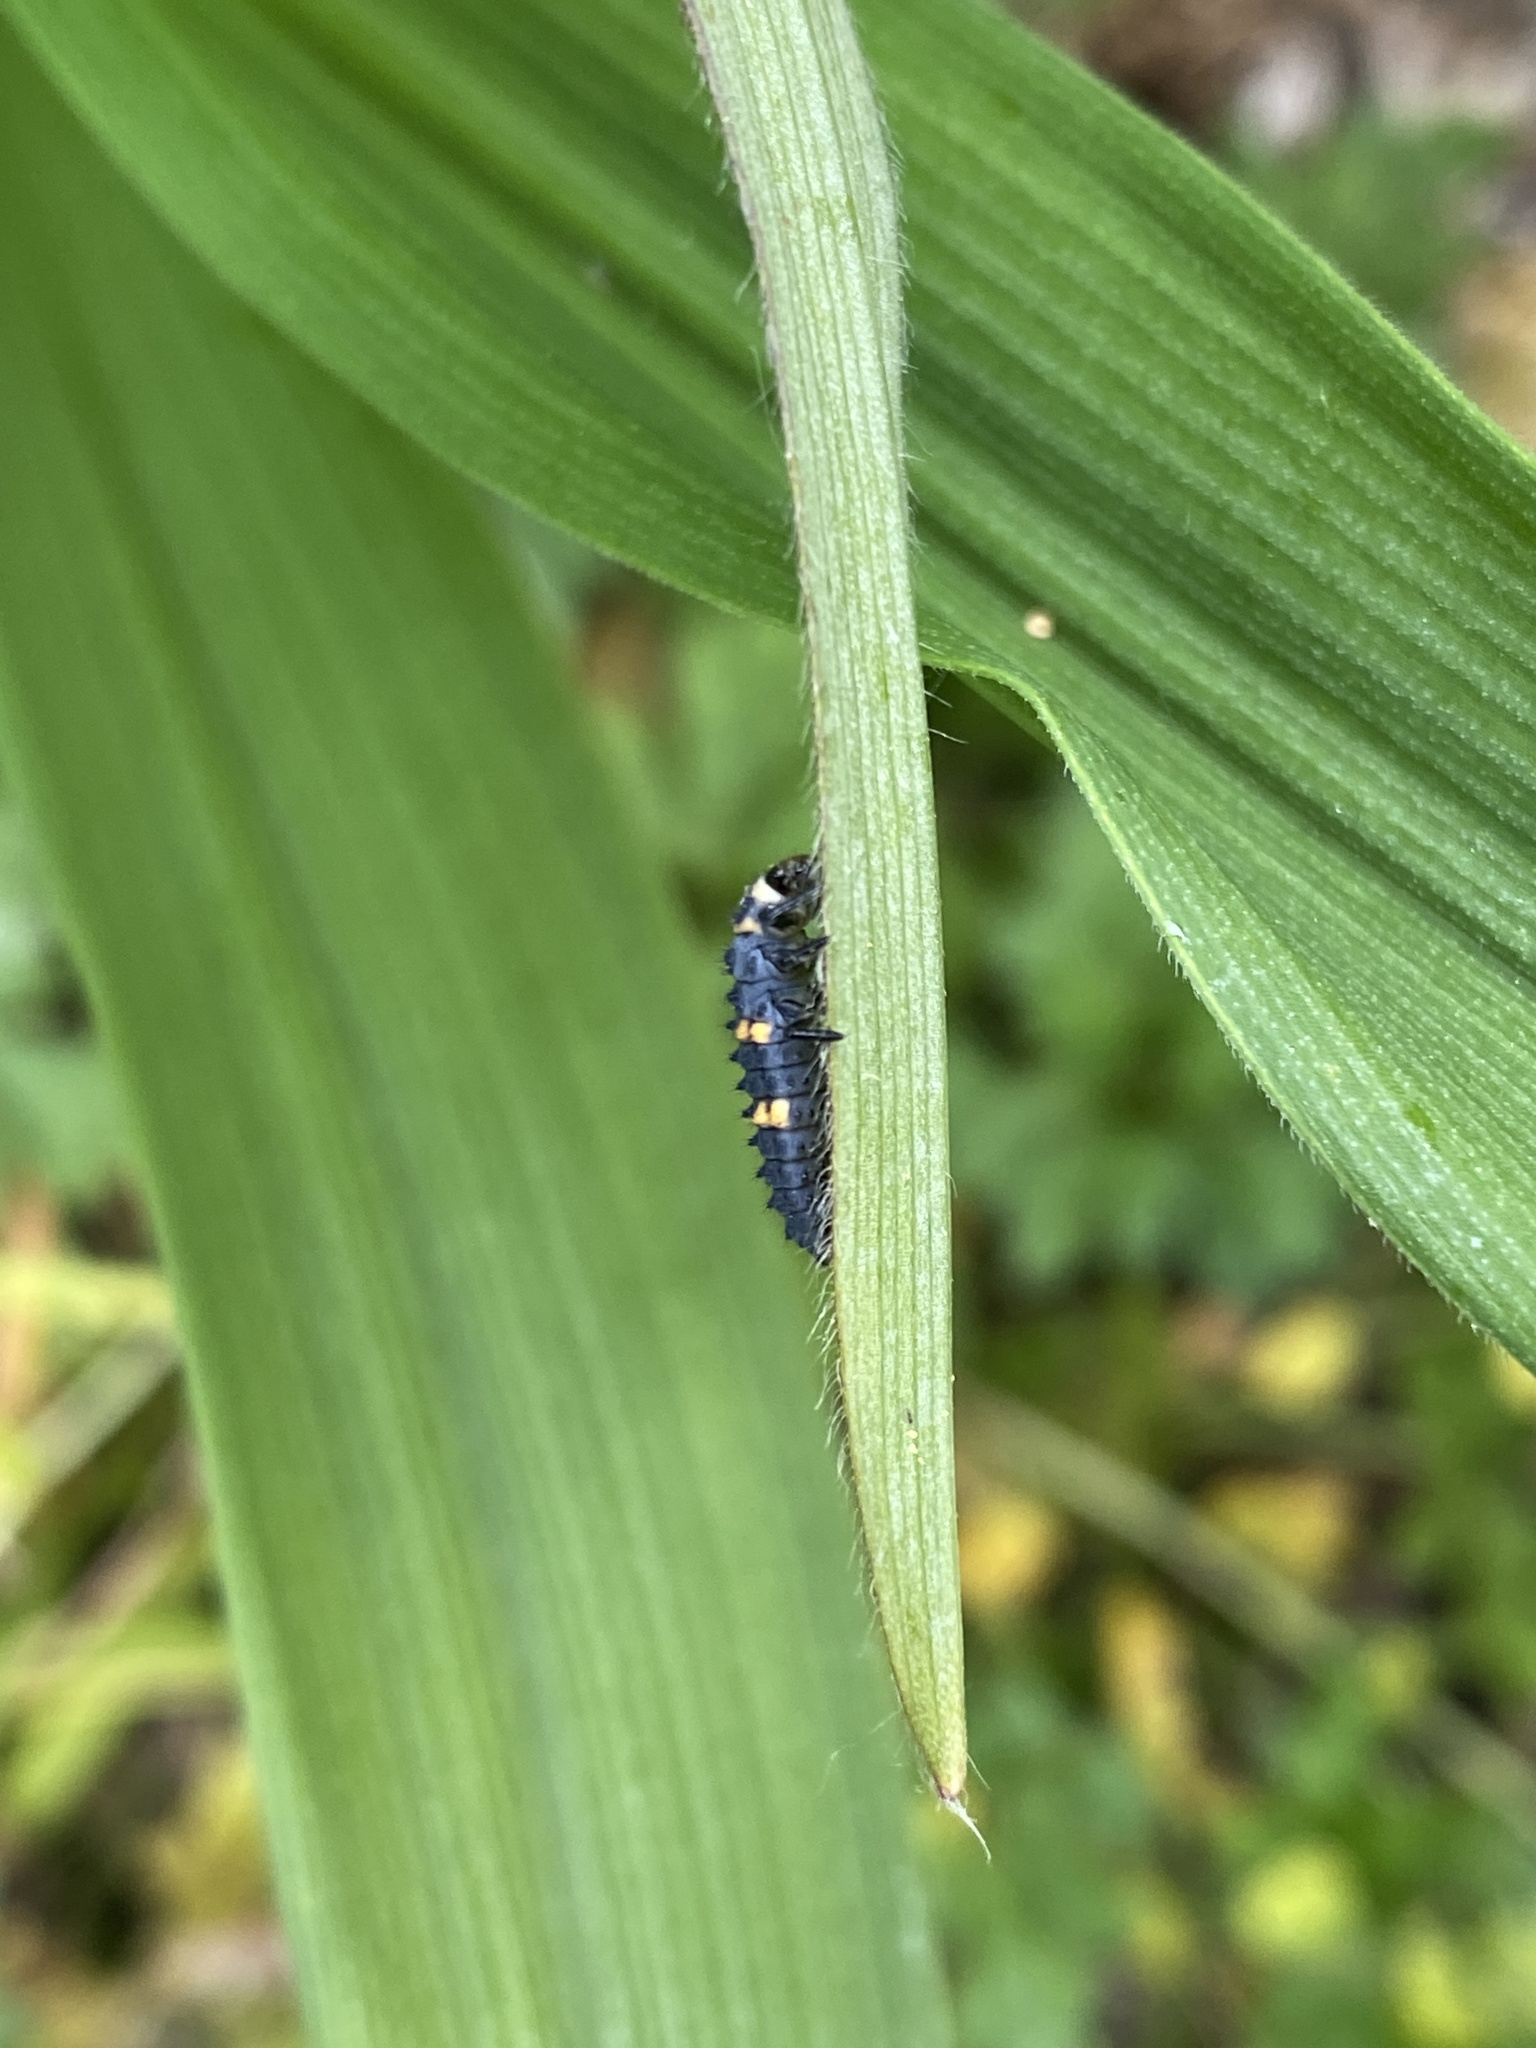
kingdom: Animalia
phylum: Arthropoda
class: Insecta
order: Coleoptera
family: Coccinellidae
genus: Coccinella
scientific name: Coccinella septempunctata
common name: Sevenspotted lady beetle
